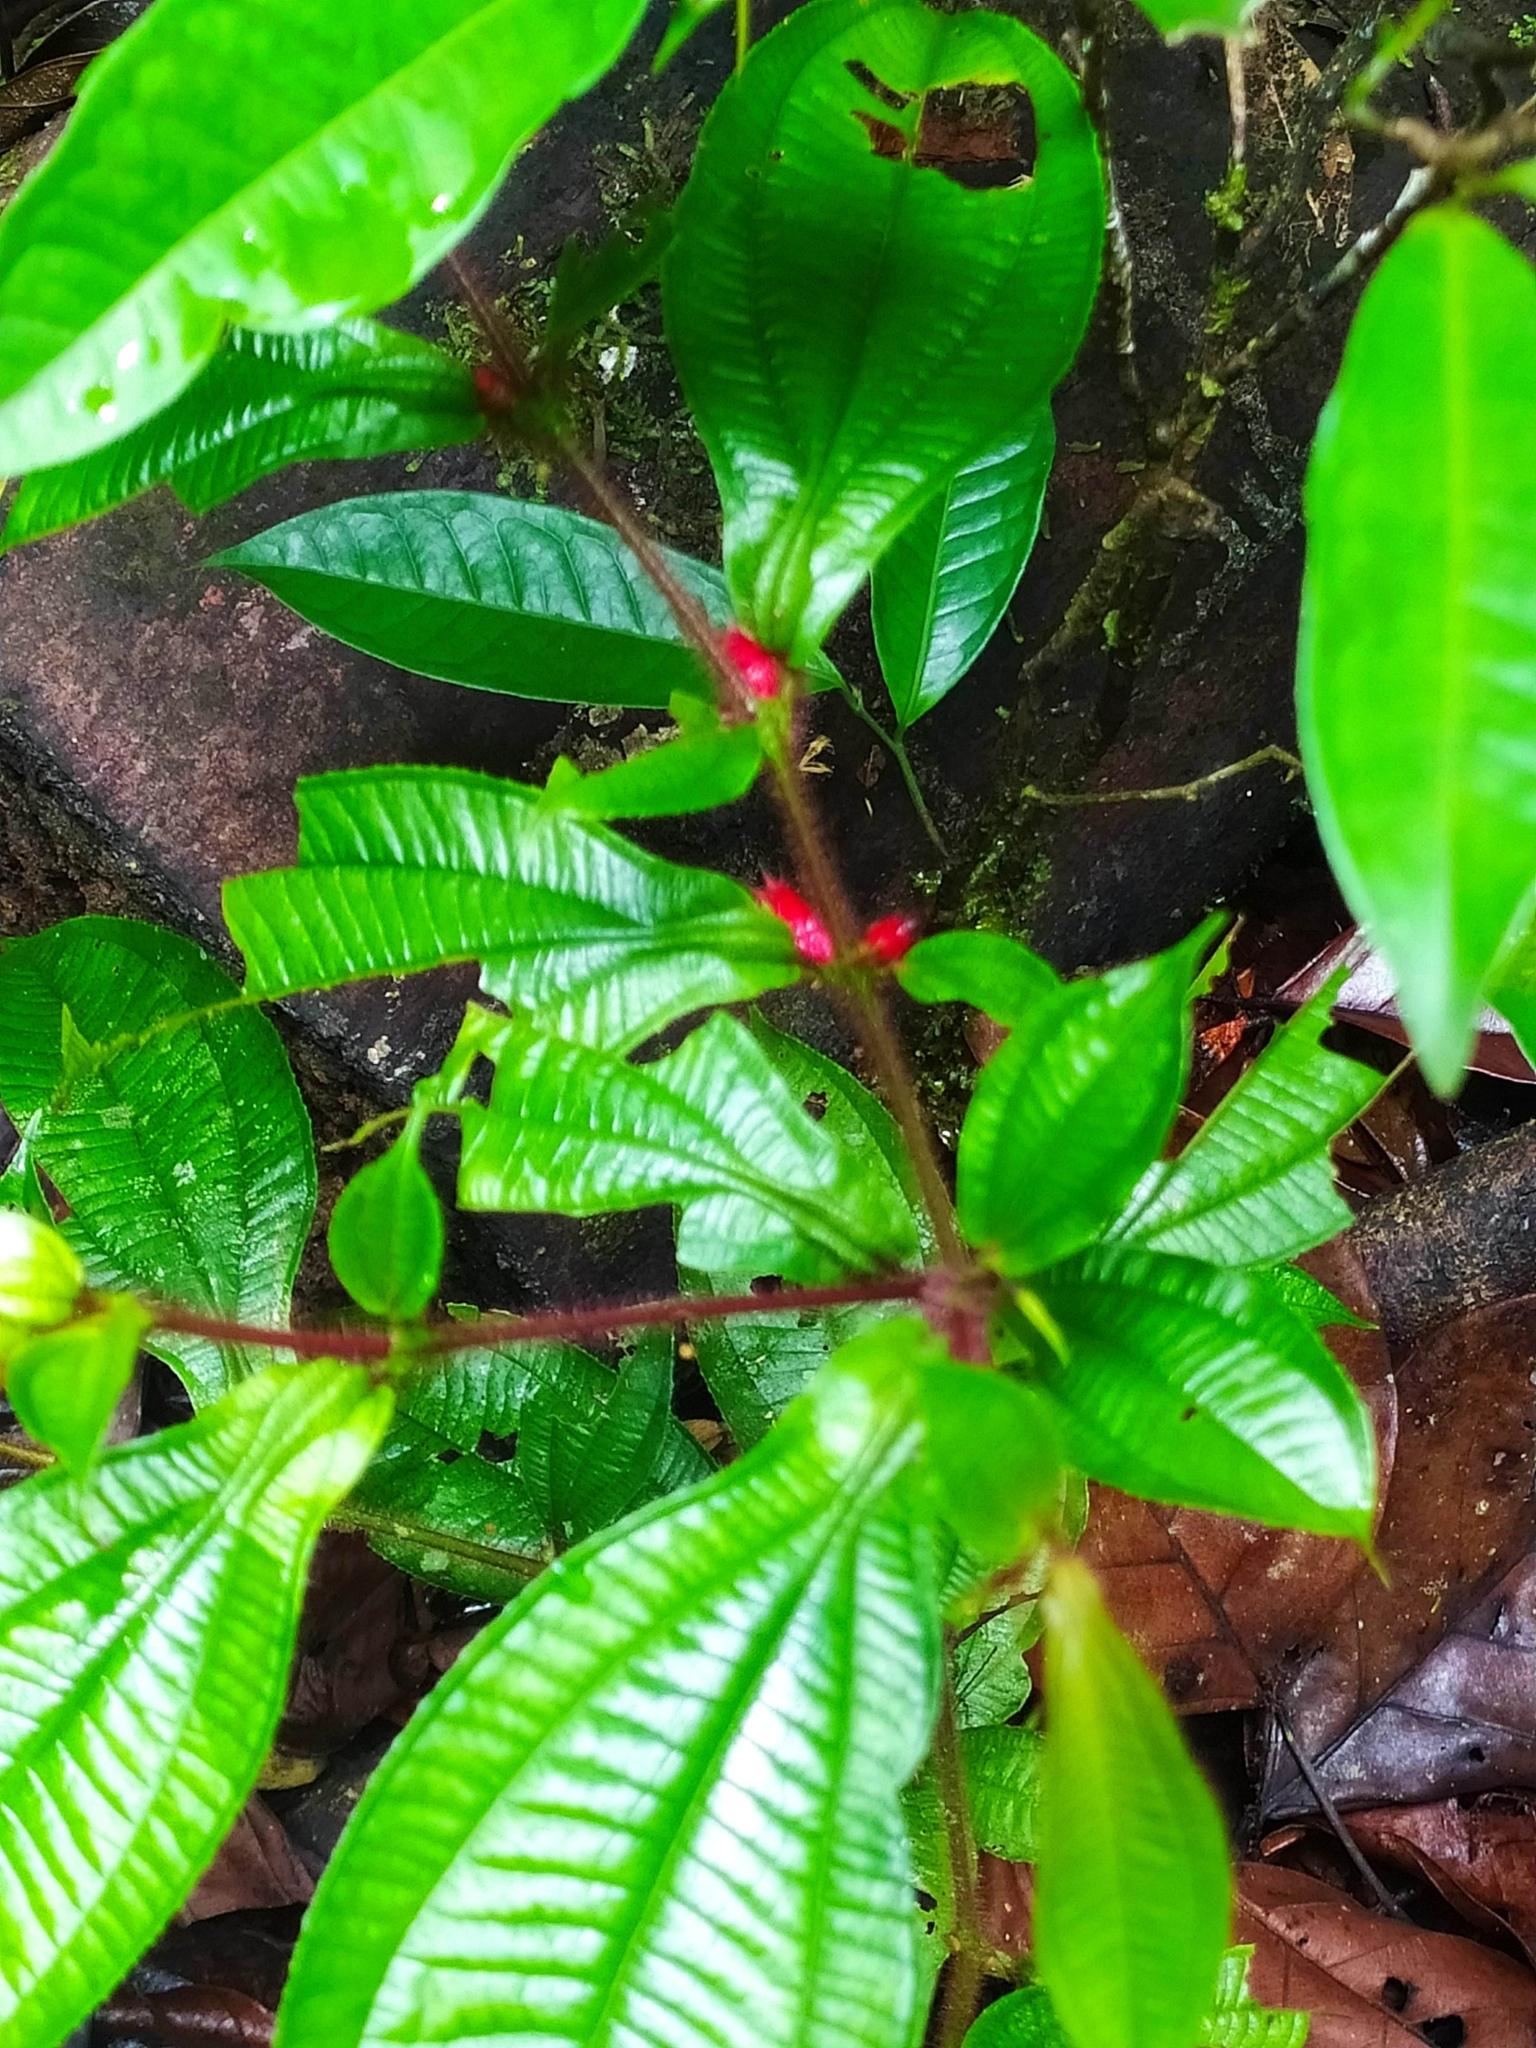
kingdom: Plantae
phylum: Tracheophyta
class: Magnoliopsida
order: Myrtales
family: Melastomataceae
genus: Miconia
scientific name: Miconia mayeta
